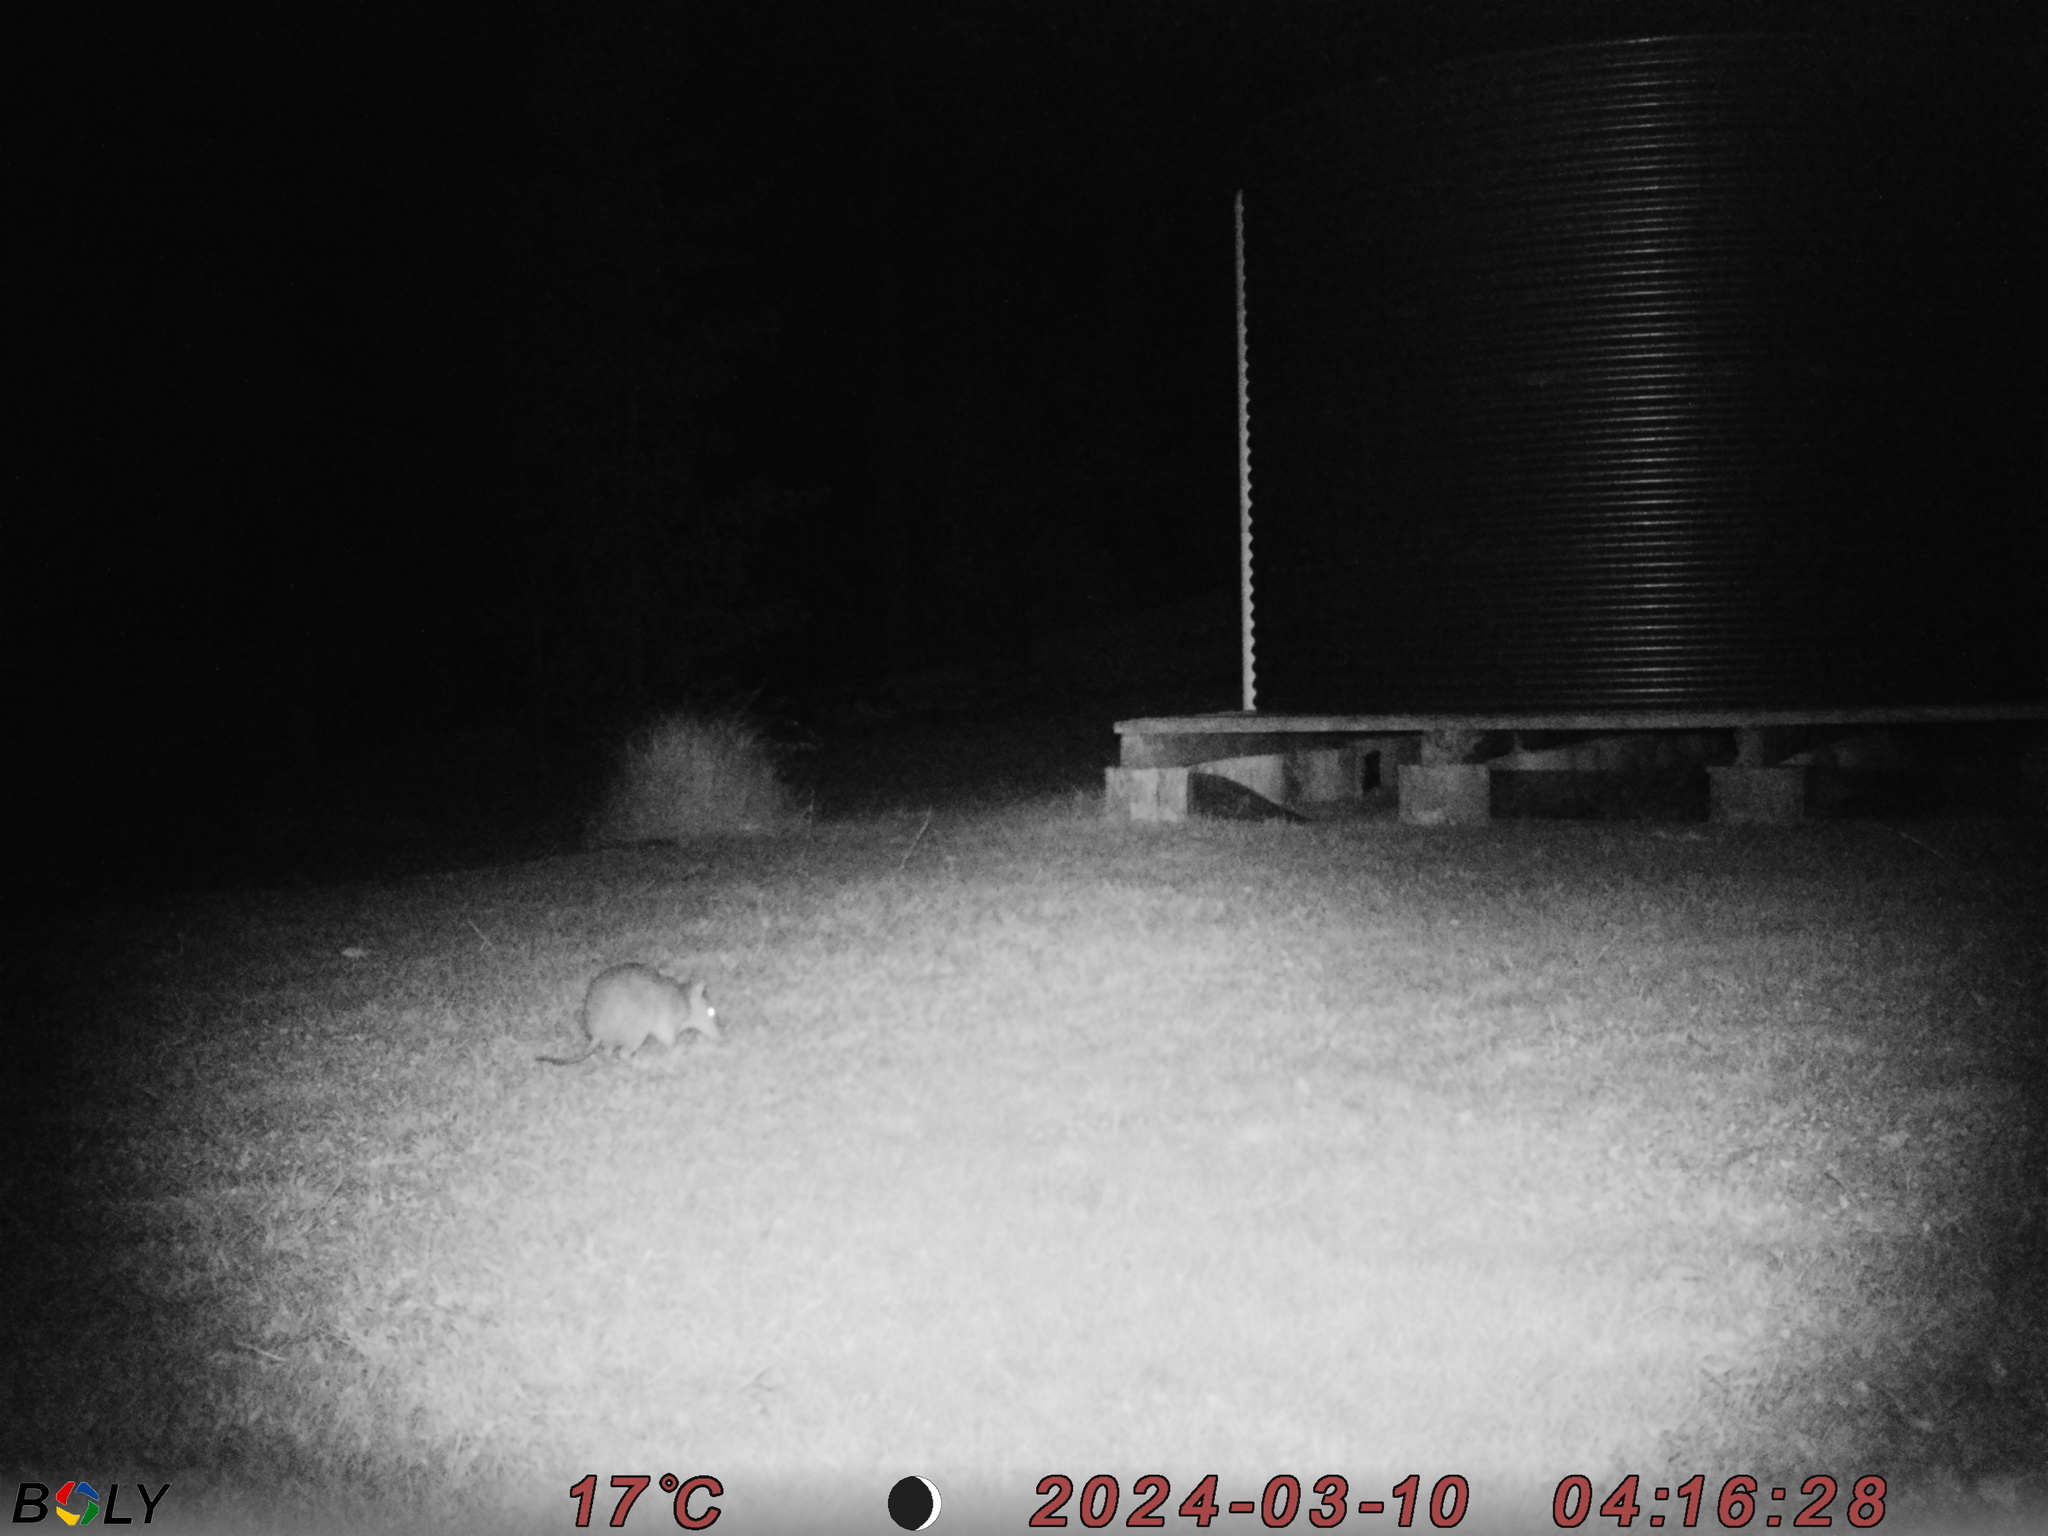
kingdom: Animalia
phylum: Chordata
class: Mammalia
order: Peramelemorphia
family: Peramelidae
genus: Perameles
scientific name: Perameles nasuta
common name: Long-nosed bandicoot
